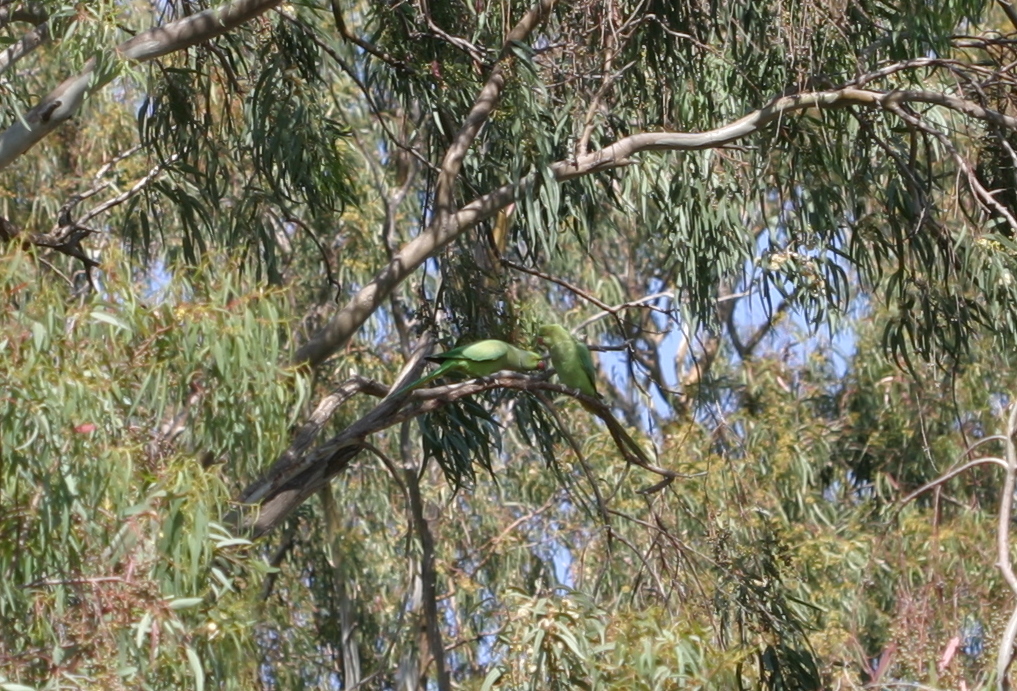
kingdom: Animalia
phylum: Chordata
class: Aves
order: Psittaciformes
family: Psittacidae
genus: Psittacula
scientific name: Psittacula krameri
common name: Rose-ringed parakeet
